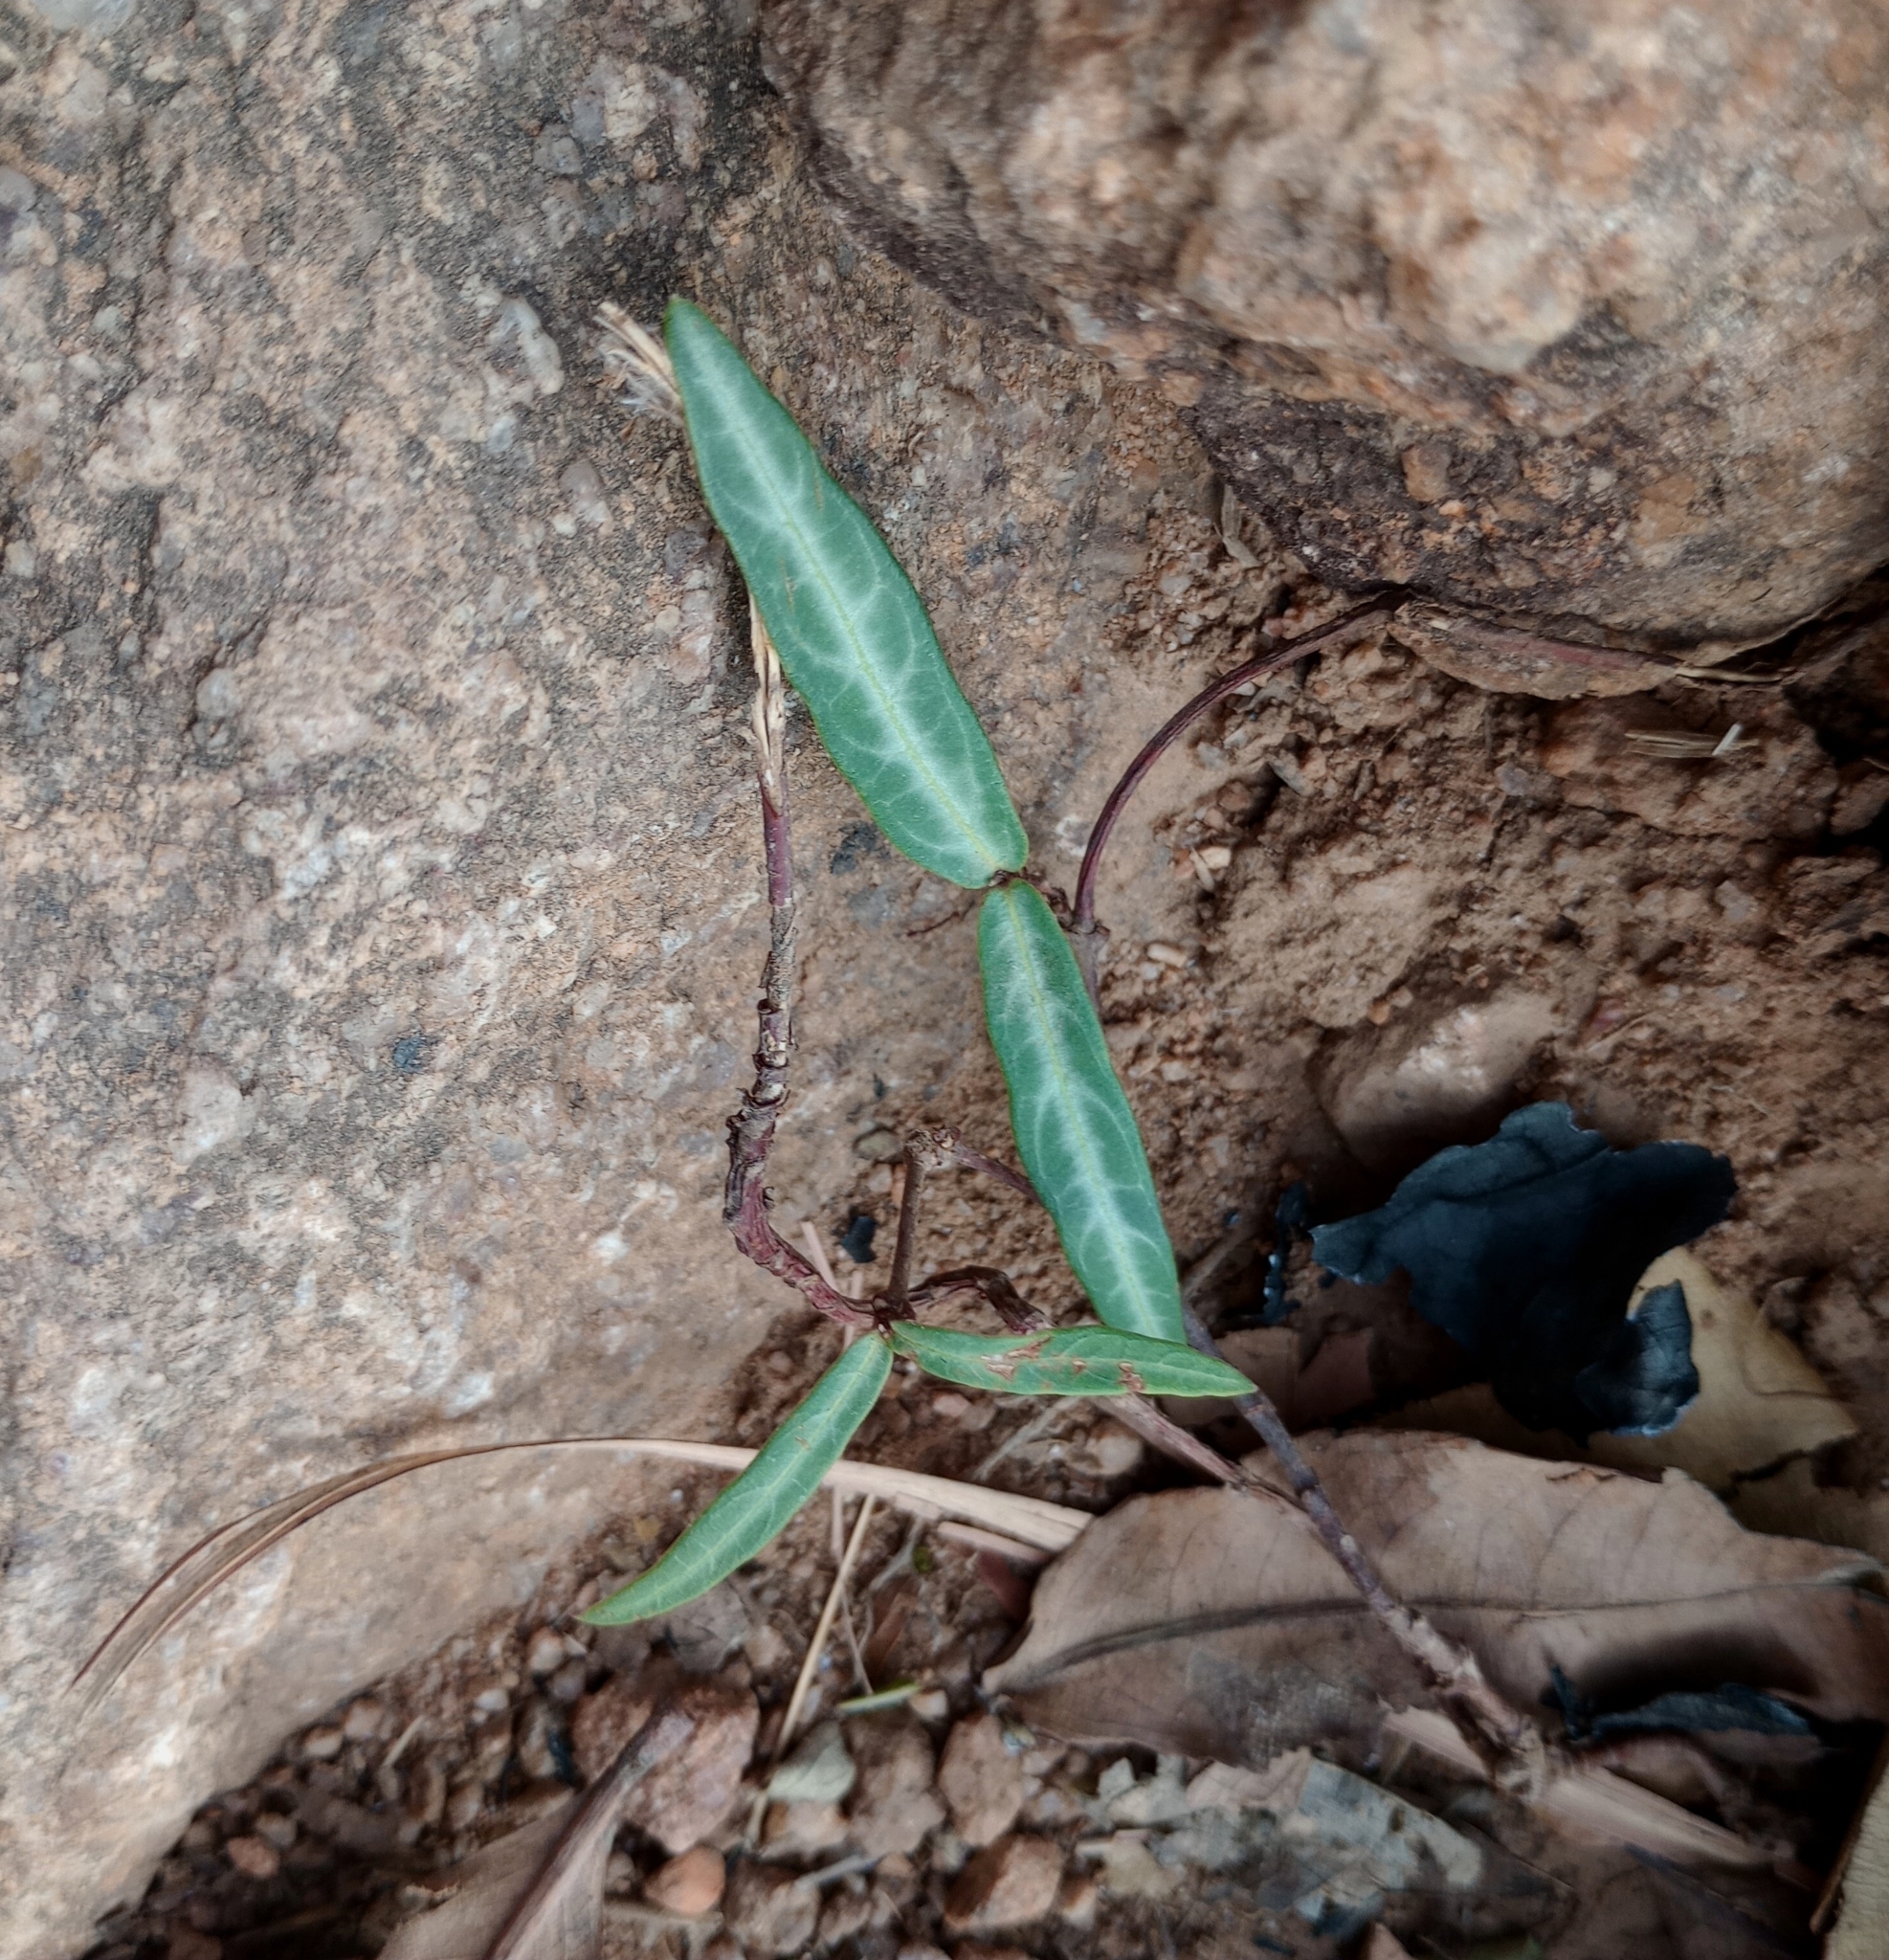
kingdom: Plantae
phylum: Tracheophyta
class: Magnoliopsida
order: Gentianales
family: Apocynaceae
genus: Hemidesmus
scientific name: Hemidesmus indicus
